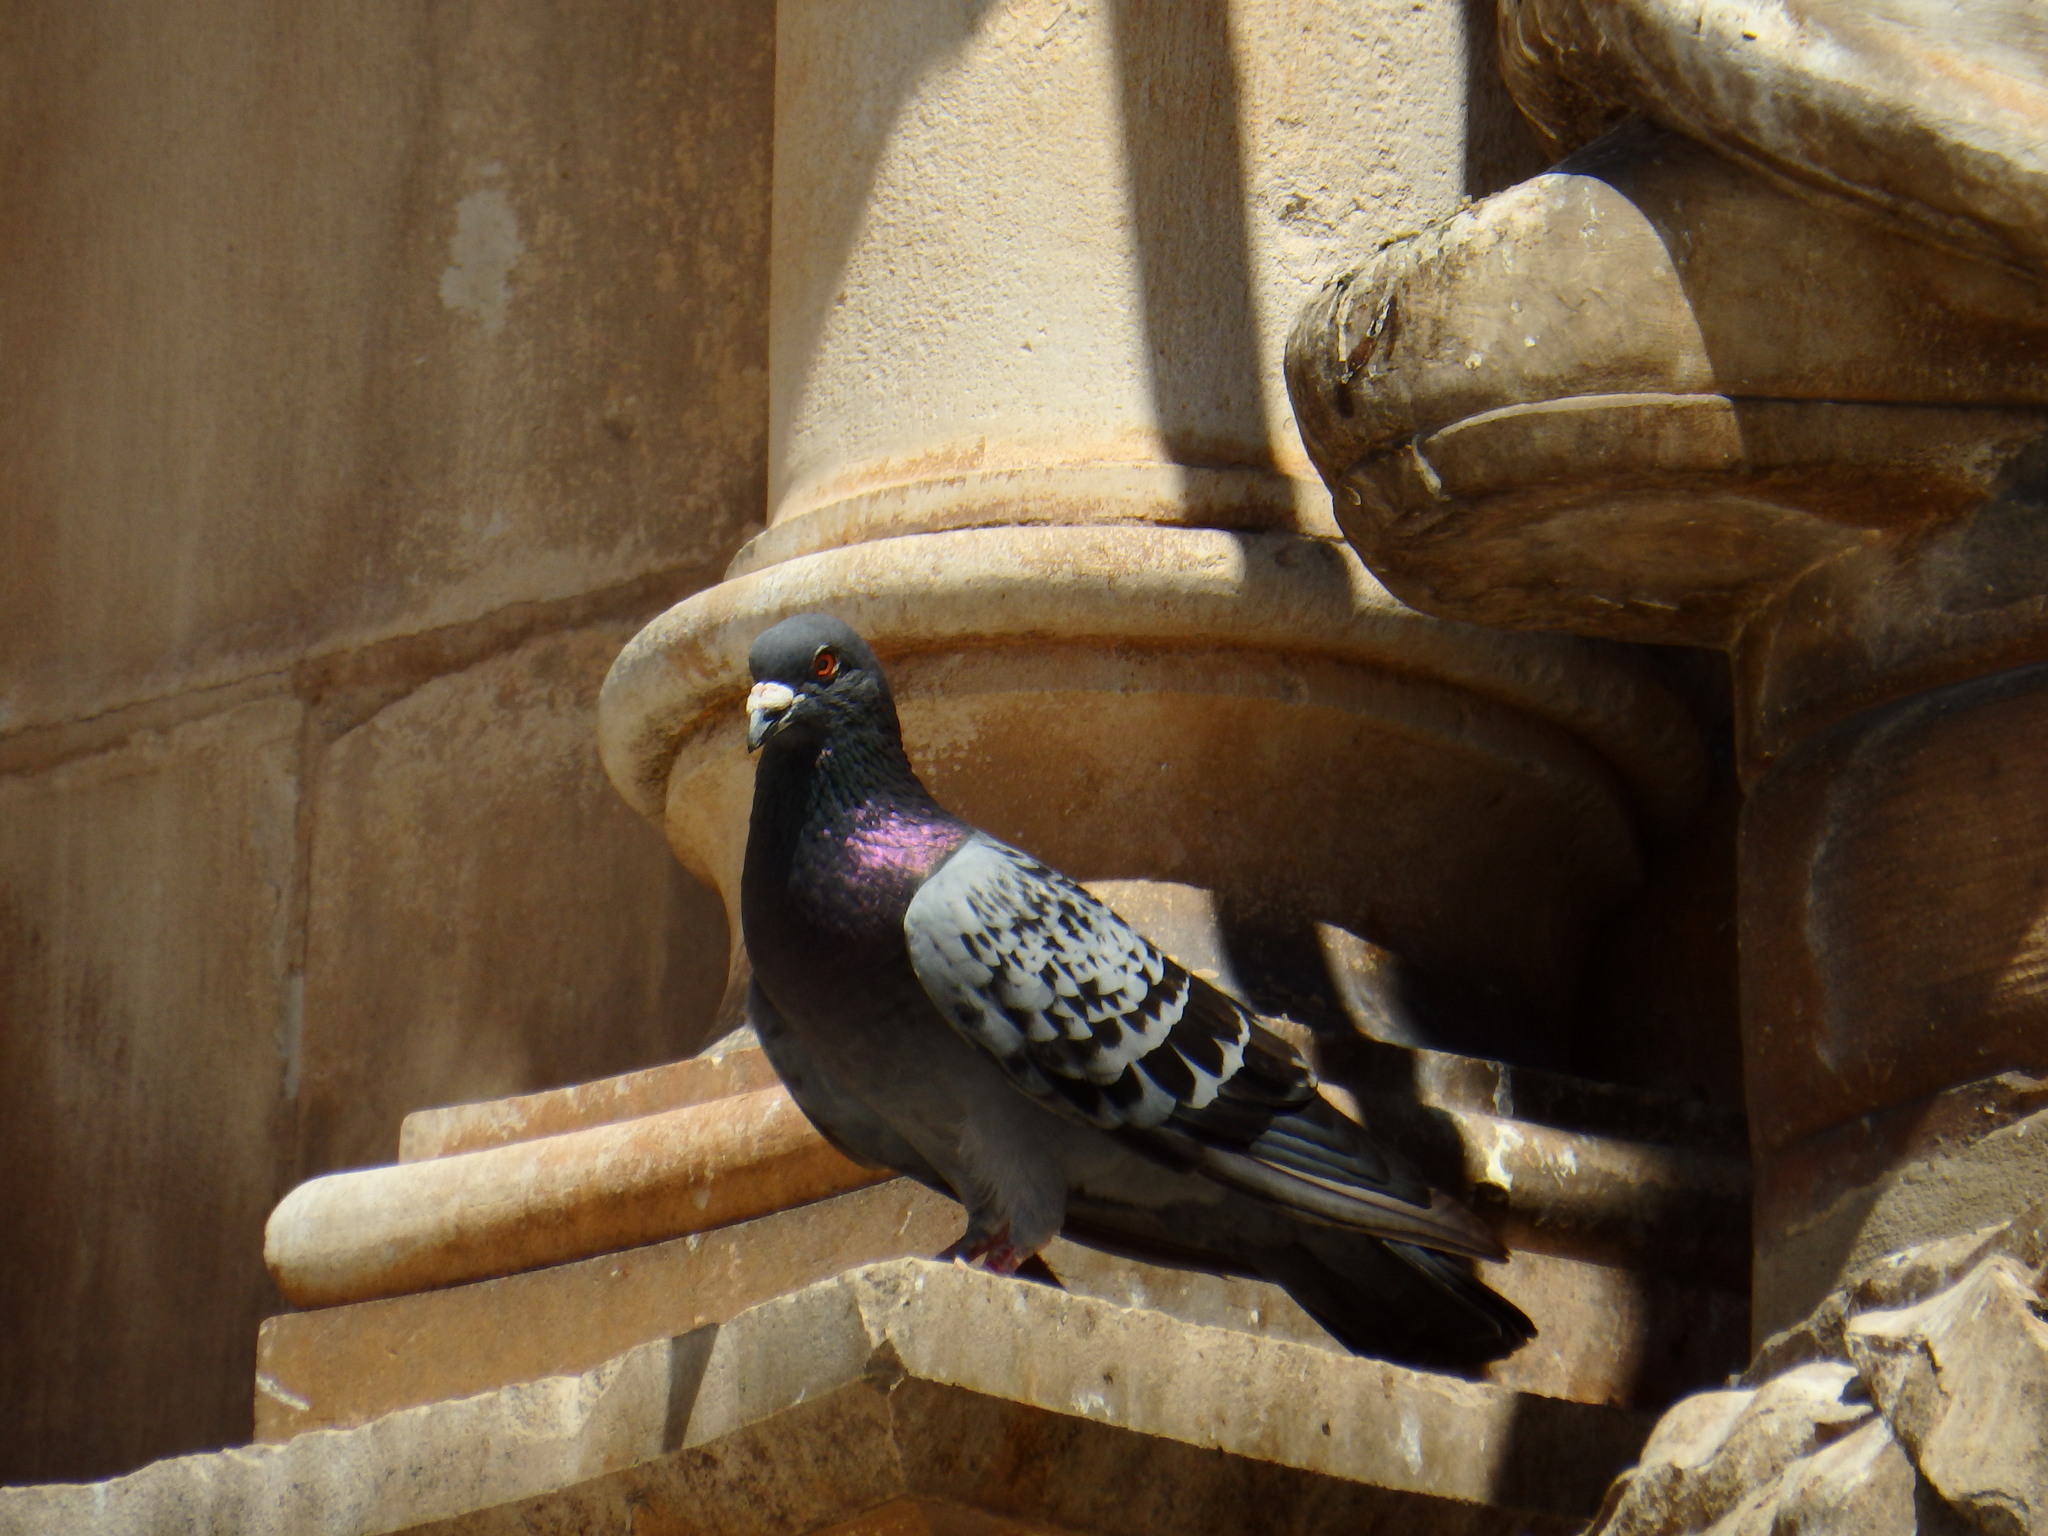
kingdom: Animalia
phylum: Chordata
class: Aves
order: Columbiformes
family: Columbidae
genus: Columba
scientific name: Columba livia
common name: Rock pigeon
